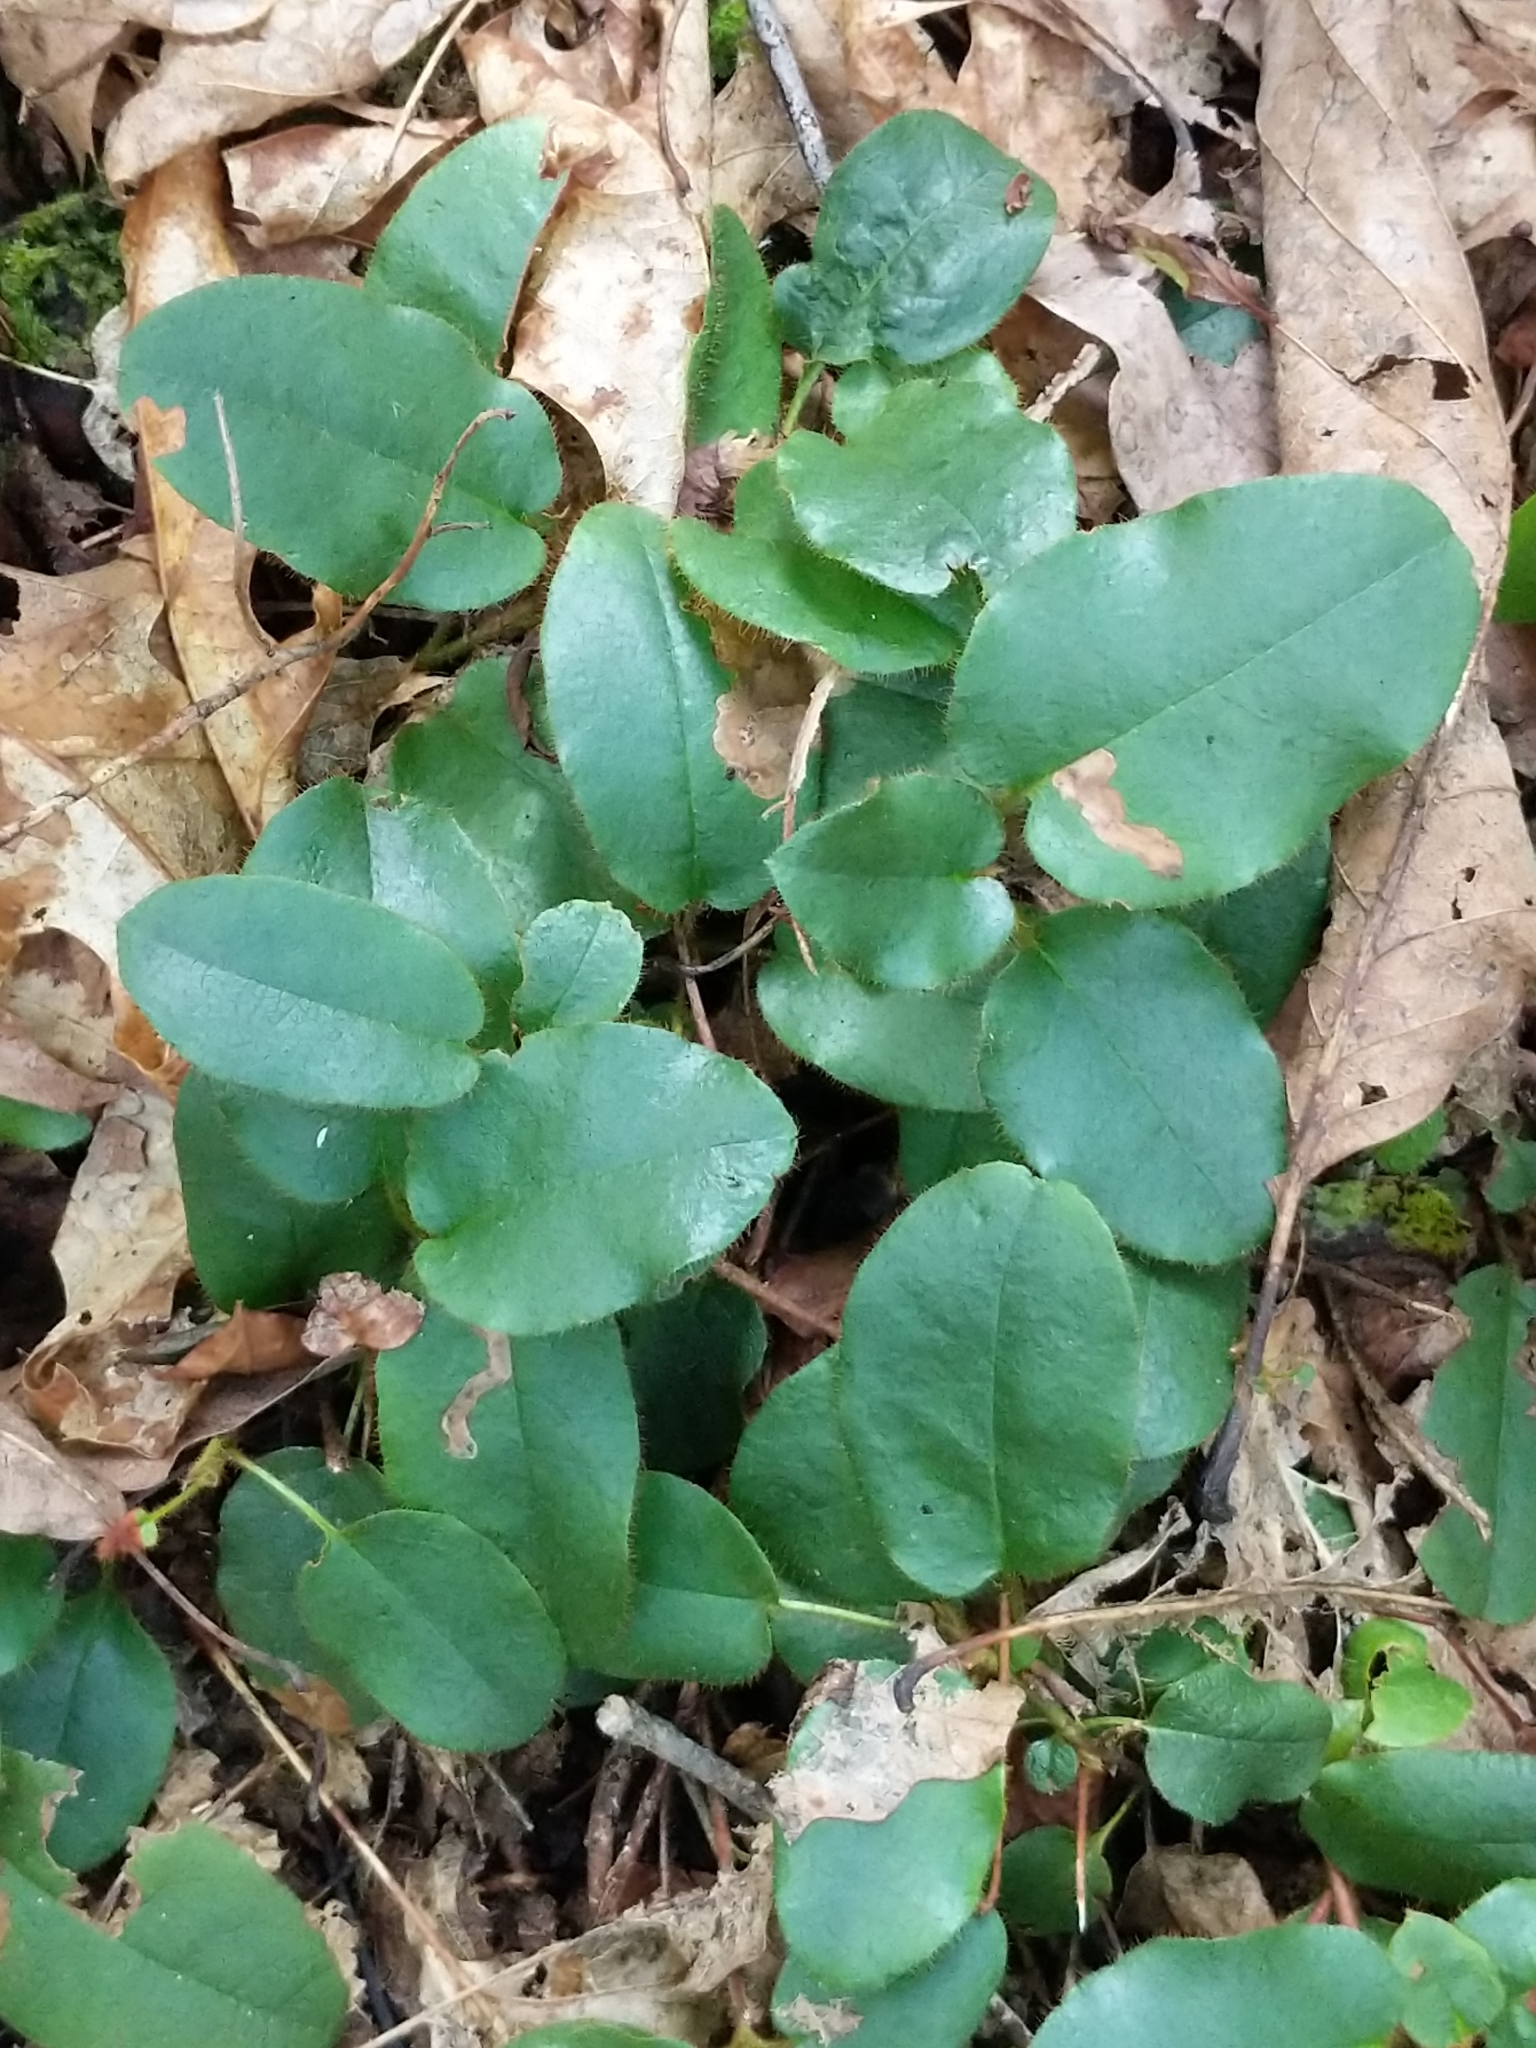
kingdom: Plantae
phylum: Tracheophyta
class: Magnoliopsida
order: Ericales
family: Ericaceae
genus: Epigaea
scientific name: Epigaea repens
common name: Gravelroot
